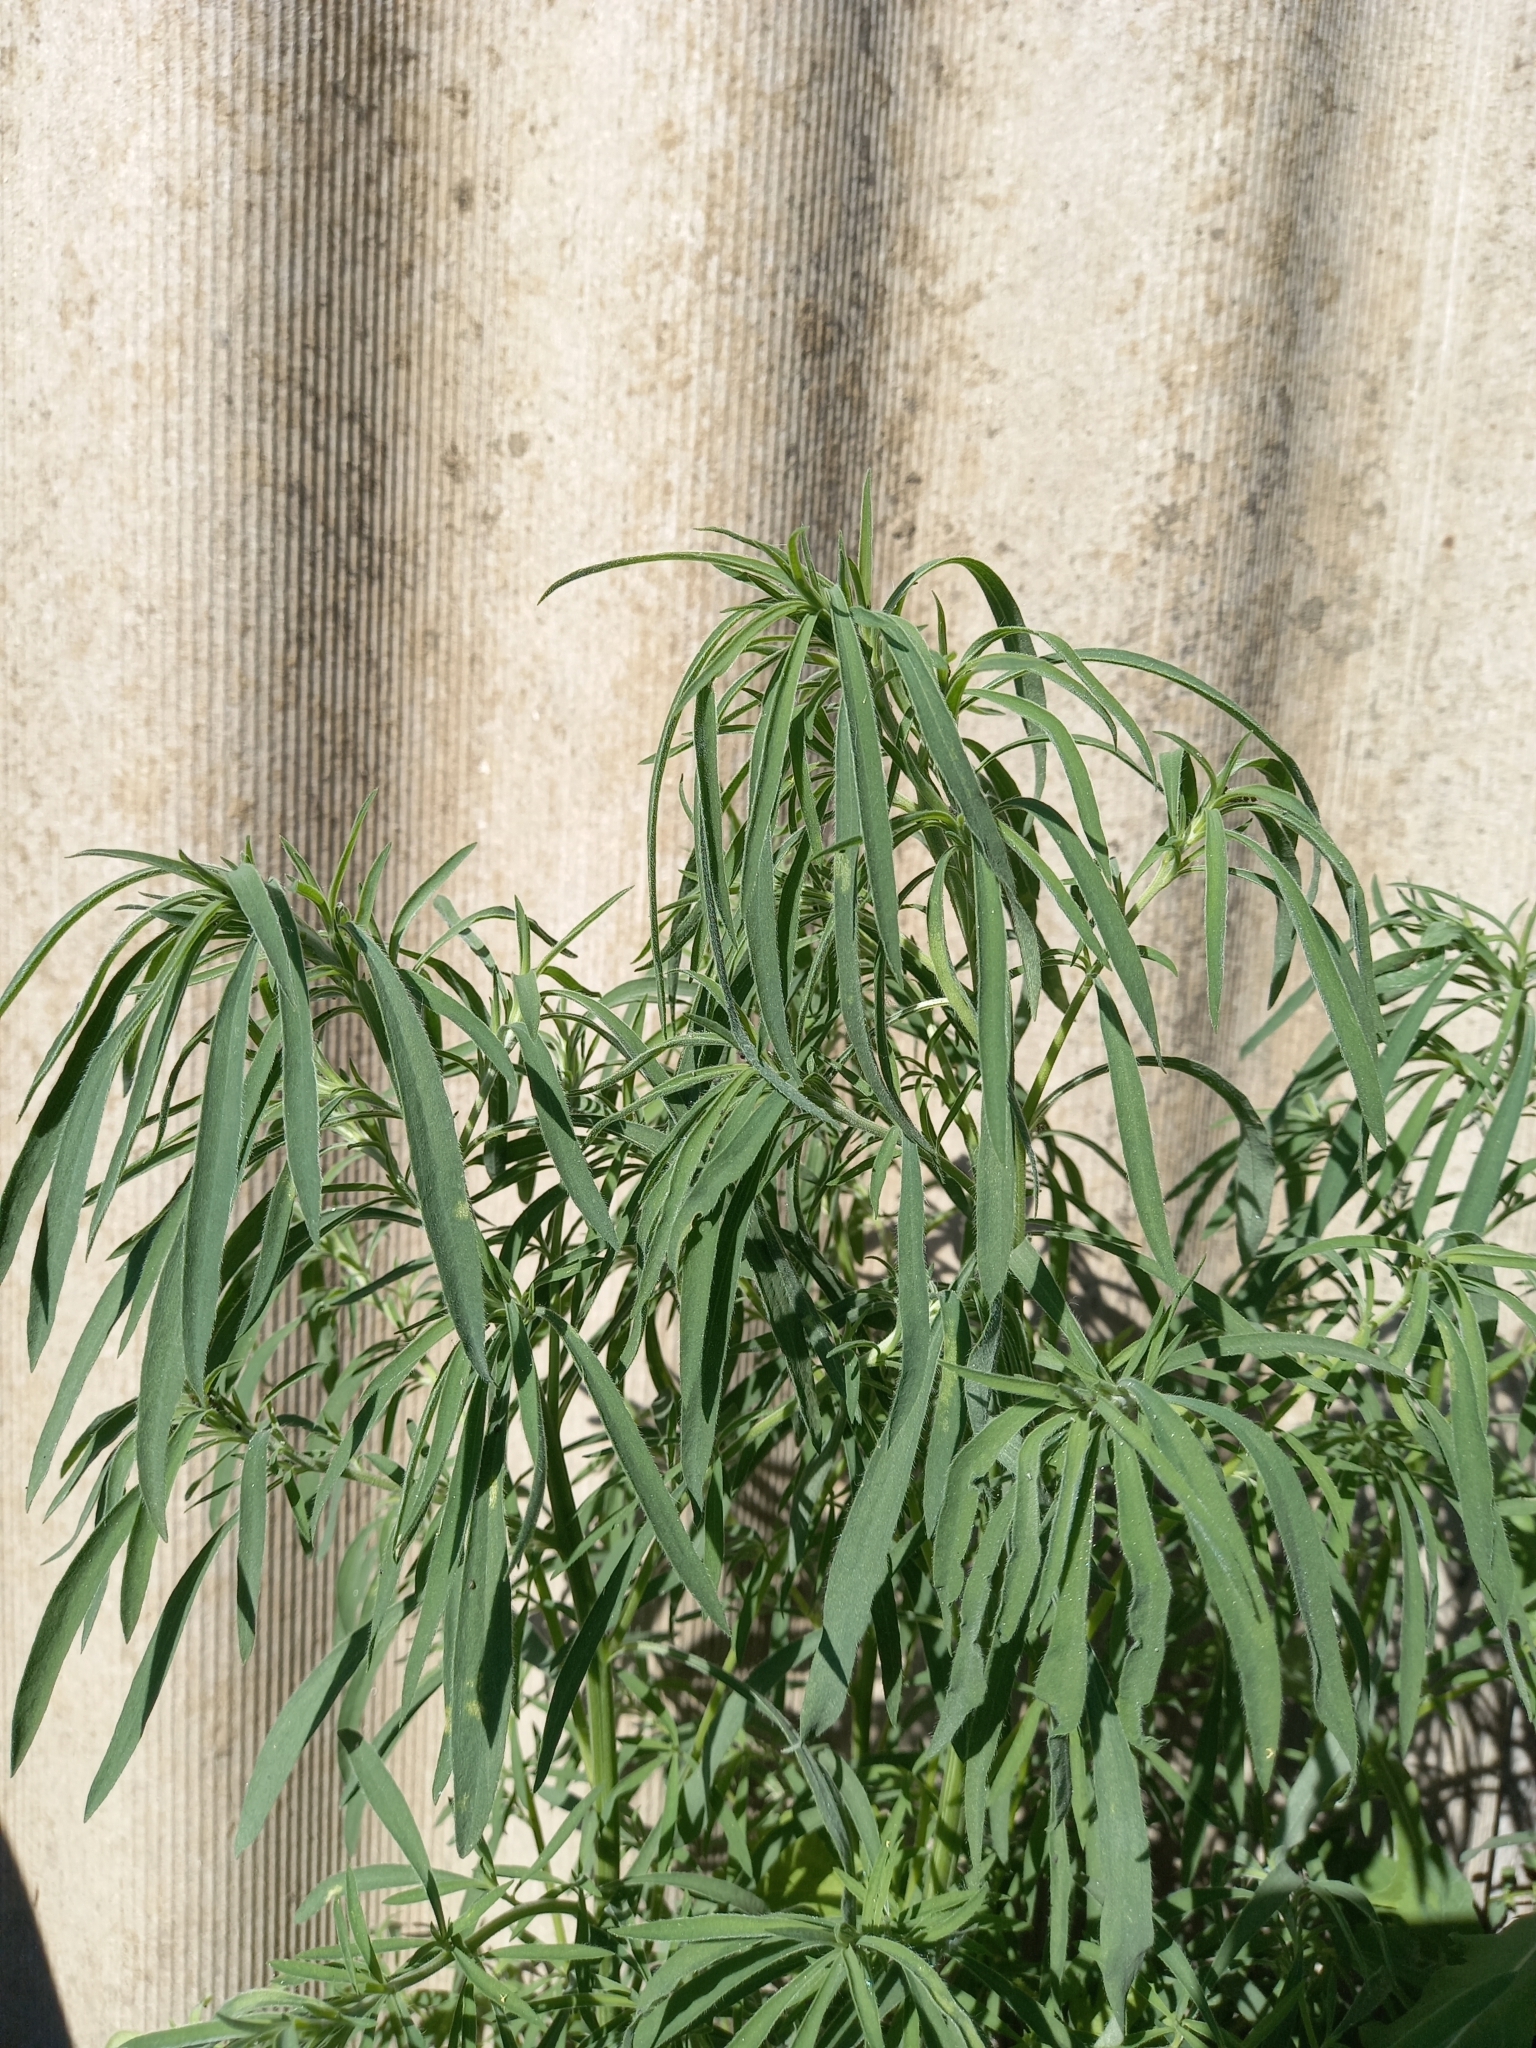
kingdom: Plantae
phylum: Tracheophyta
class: Magnoliopsida
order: Caryophyllales
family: Amaranthaceae
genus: Bassia
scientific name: Bassia scoparia
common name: Belvedere
